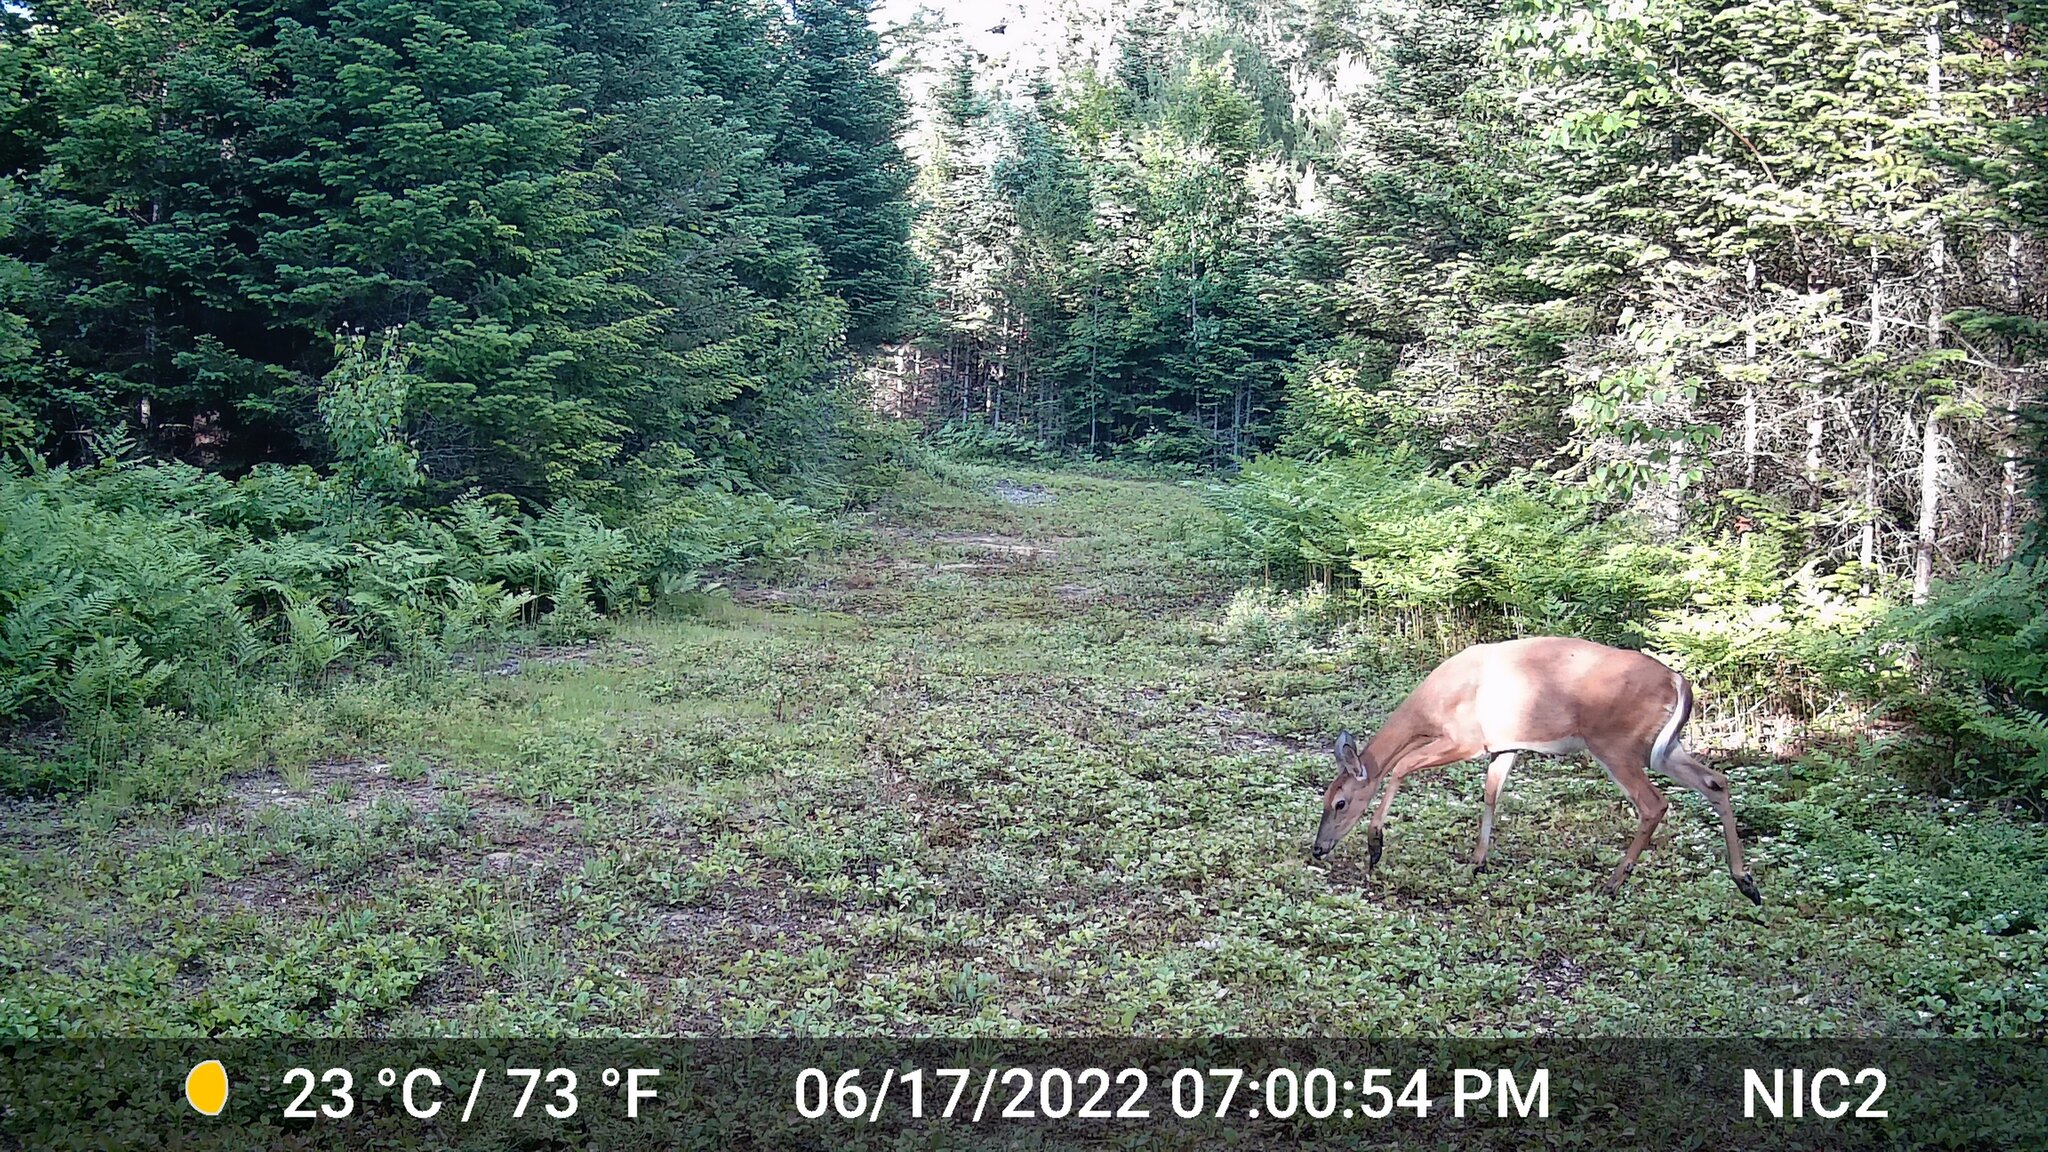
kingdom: Animalia
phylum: Chordata
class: Mammalia
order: Artiodactyla
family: Cervidae
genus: Odocoileus
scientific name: Odocoileus virginianus
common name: White-tailed deer
